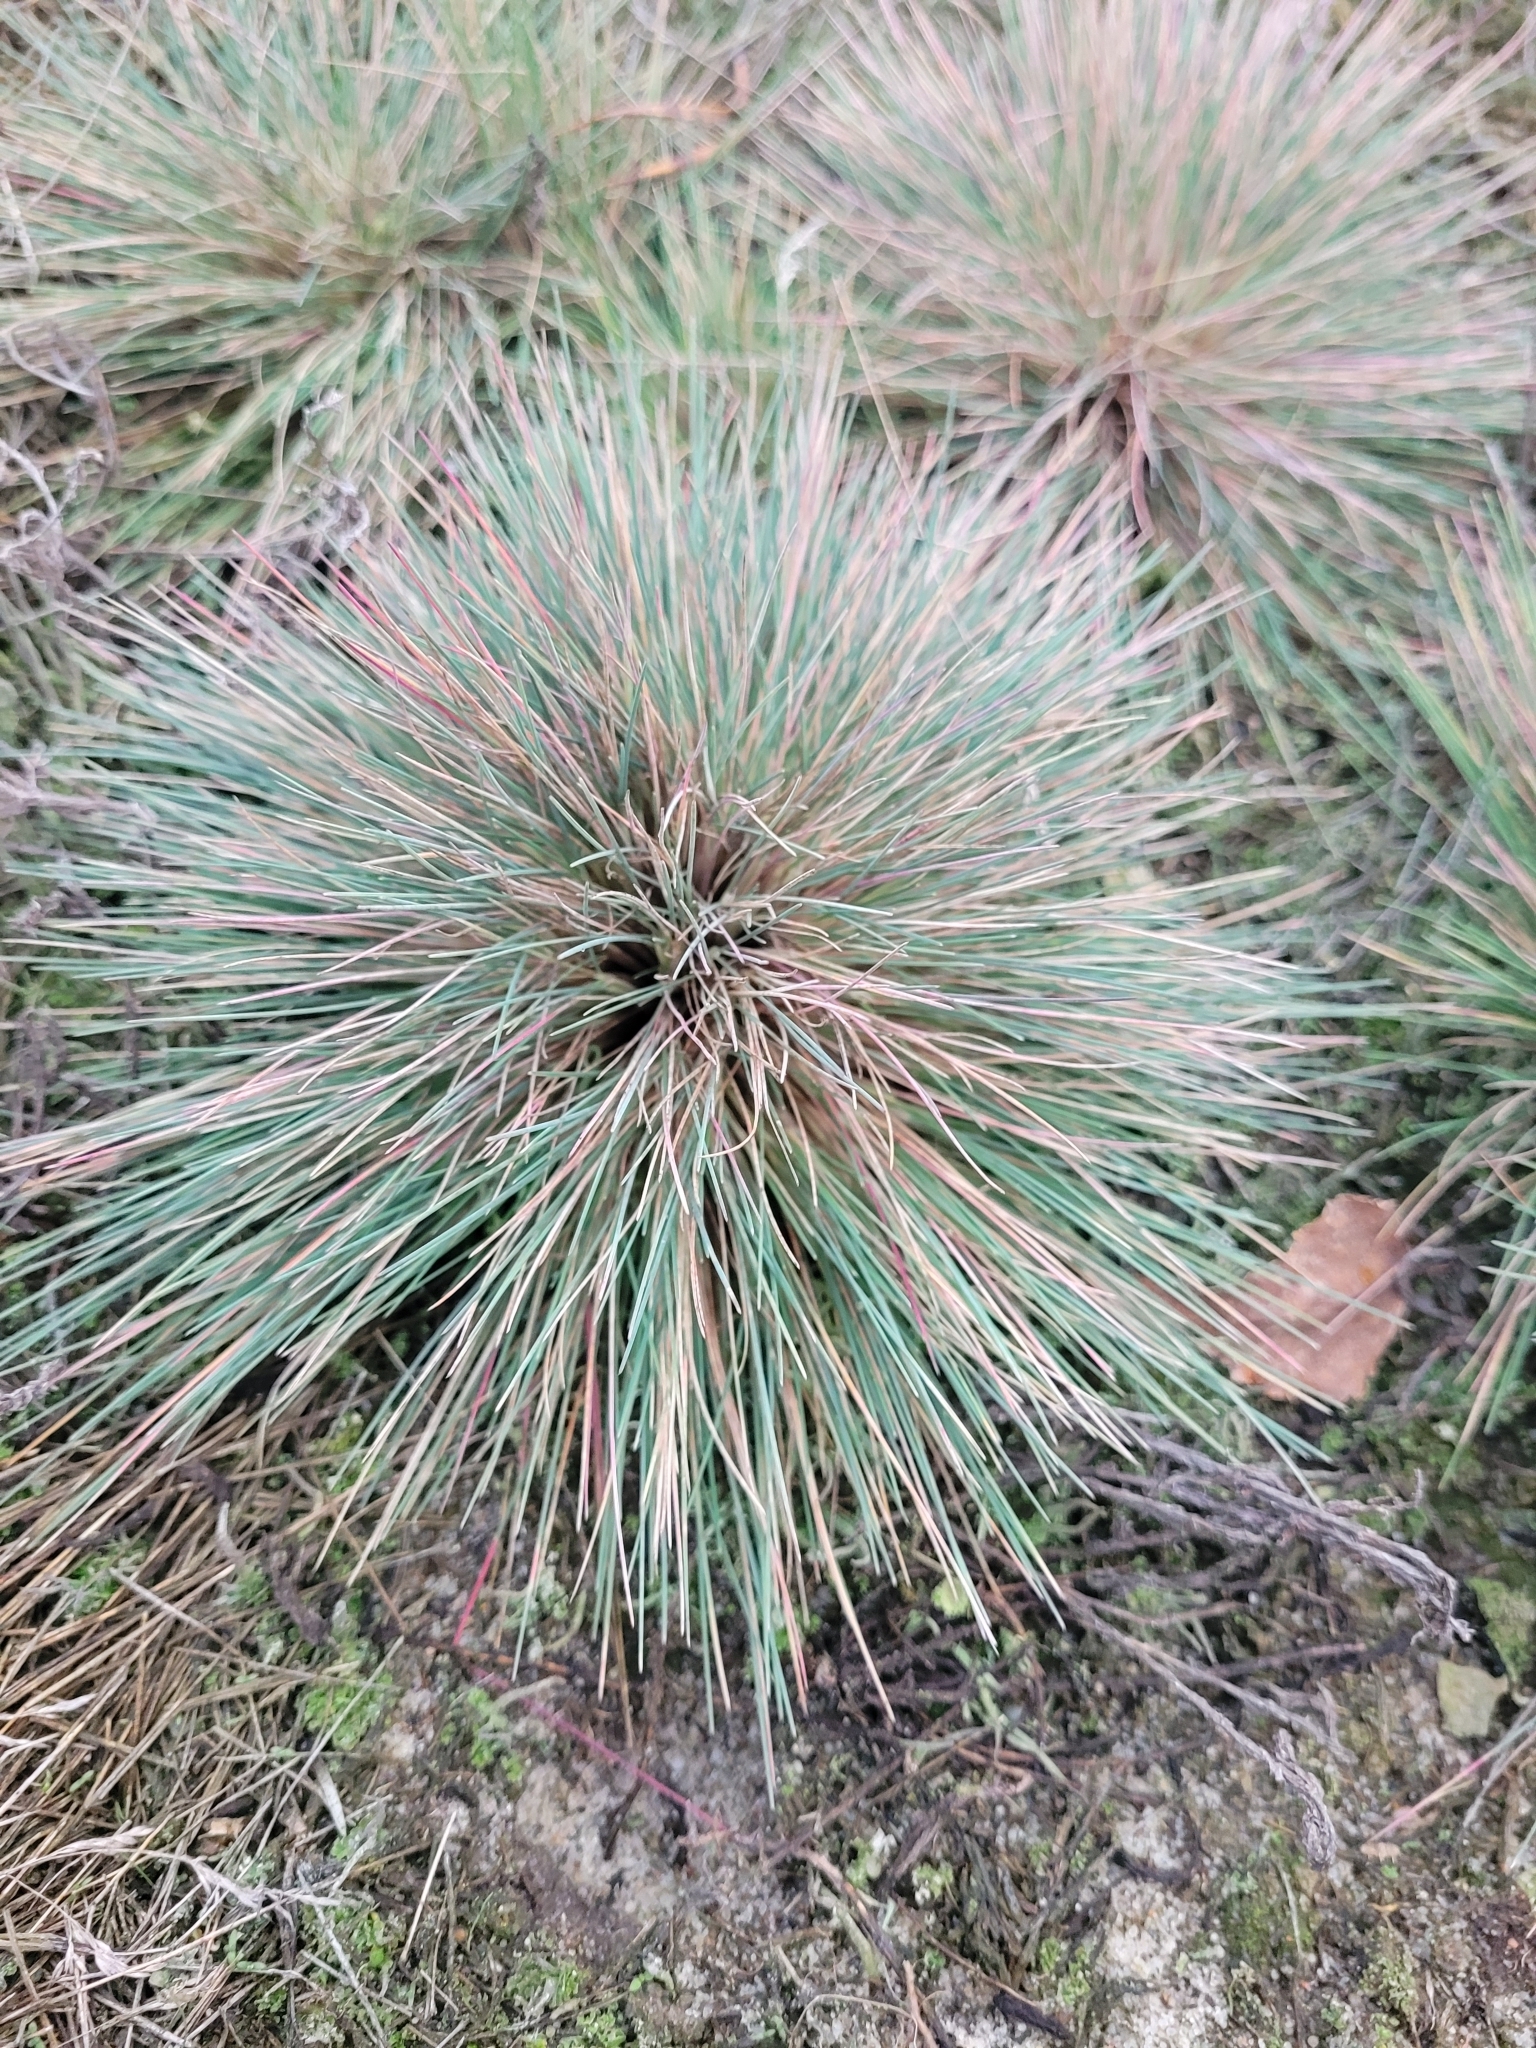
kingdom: Plantae
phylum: Tracheophyta
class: Liliopsida
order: Poales
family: Poaceae
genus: Corynephorus
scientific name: Corynephorus canescens
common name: Grey hair-grass
